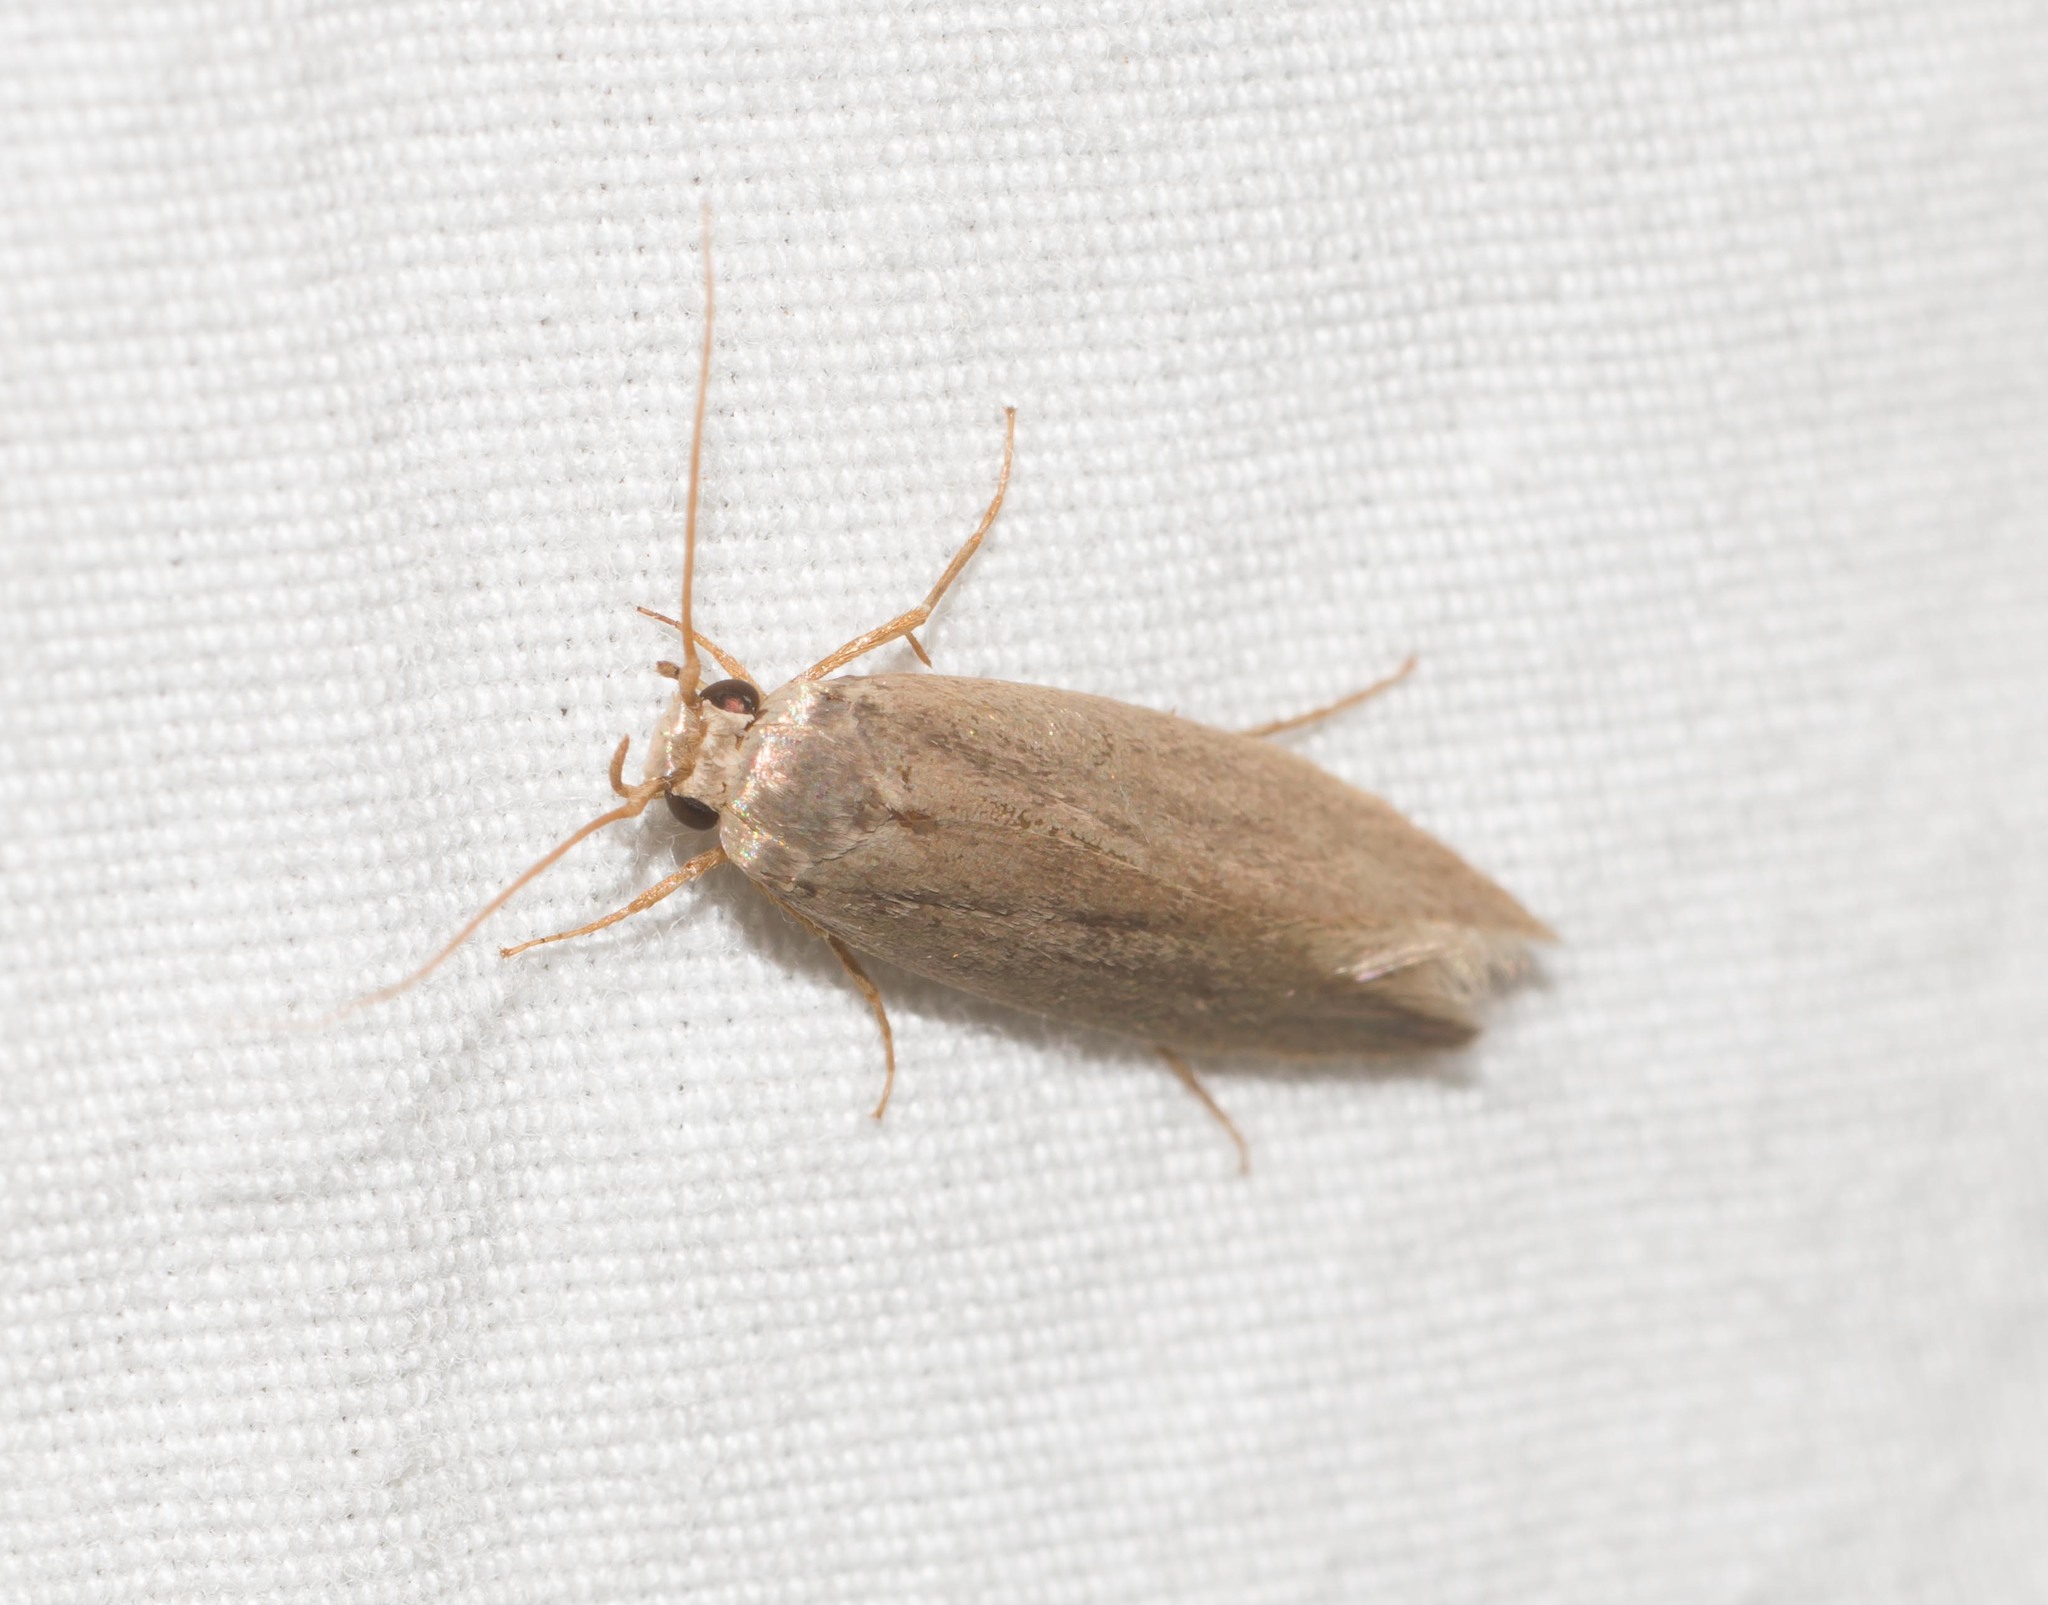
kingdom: Animalia
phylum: Arthropoda
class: Insecta
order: Lepidoptera
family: Tineidae
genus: Opogona
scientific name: Opogona sacchari
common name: Banana bud moth
